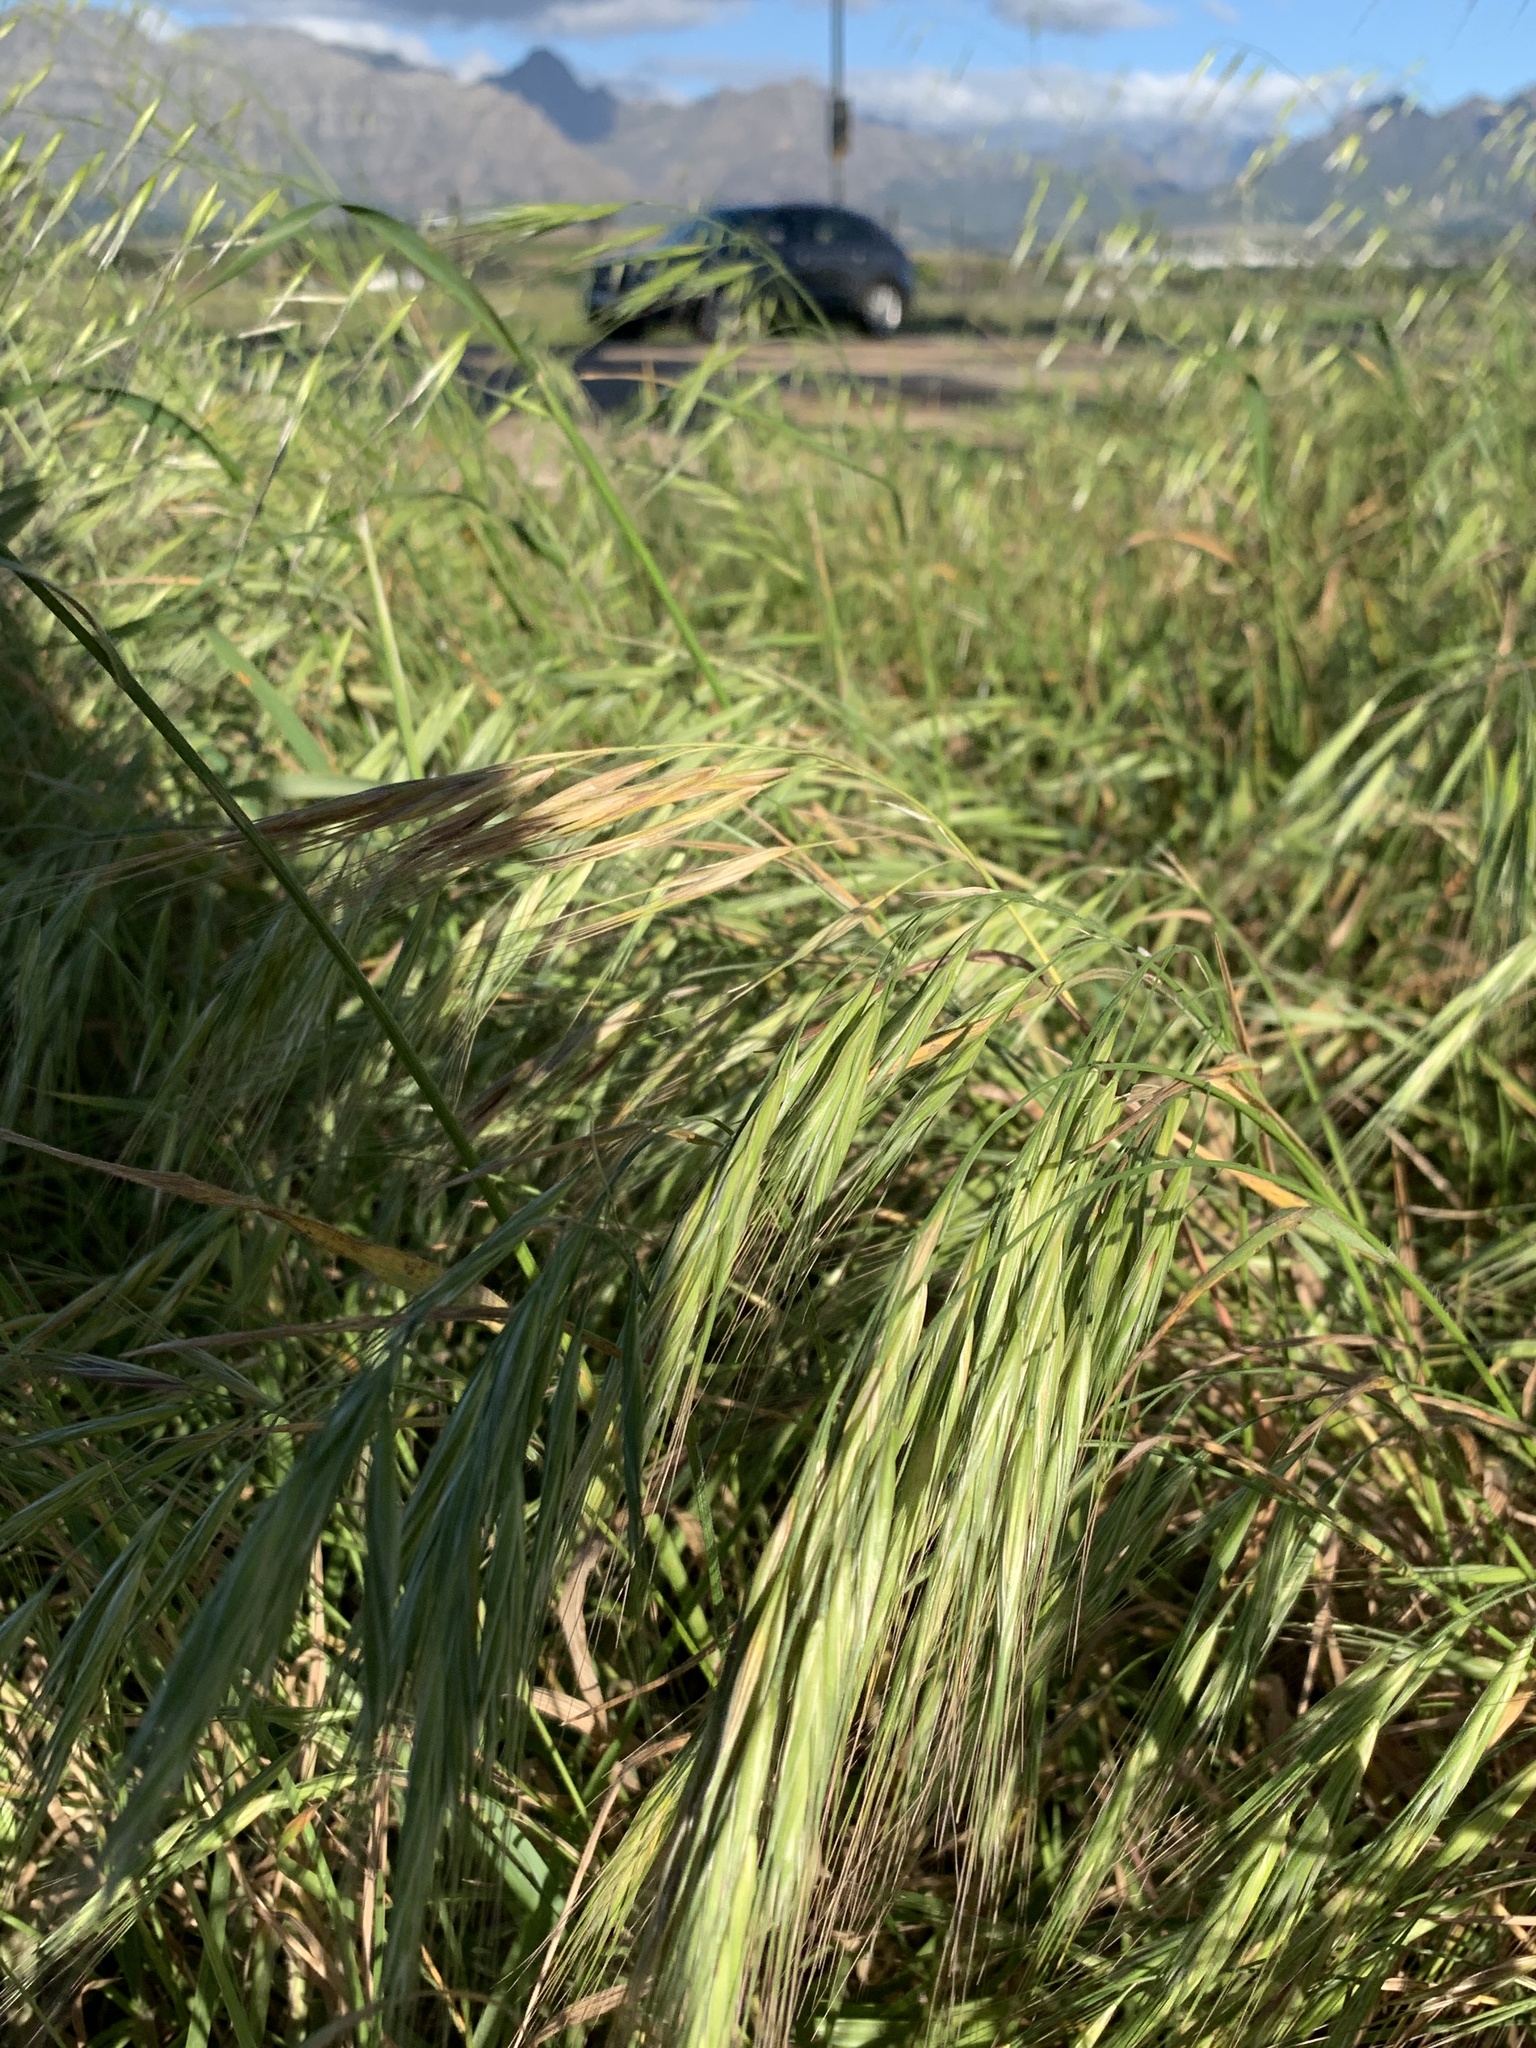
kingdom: Plantae
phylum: Tracheophyta
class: Liliopsida
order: Poales
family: Poaceae
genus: Bromus
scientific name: Bromus diandrus
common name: Ripgut brome
